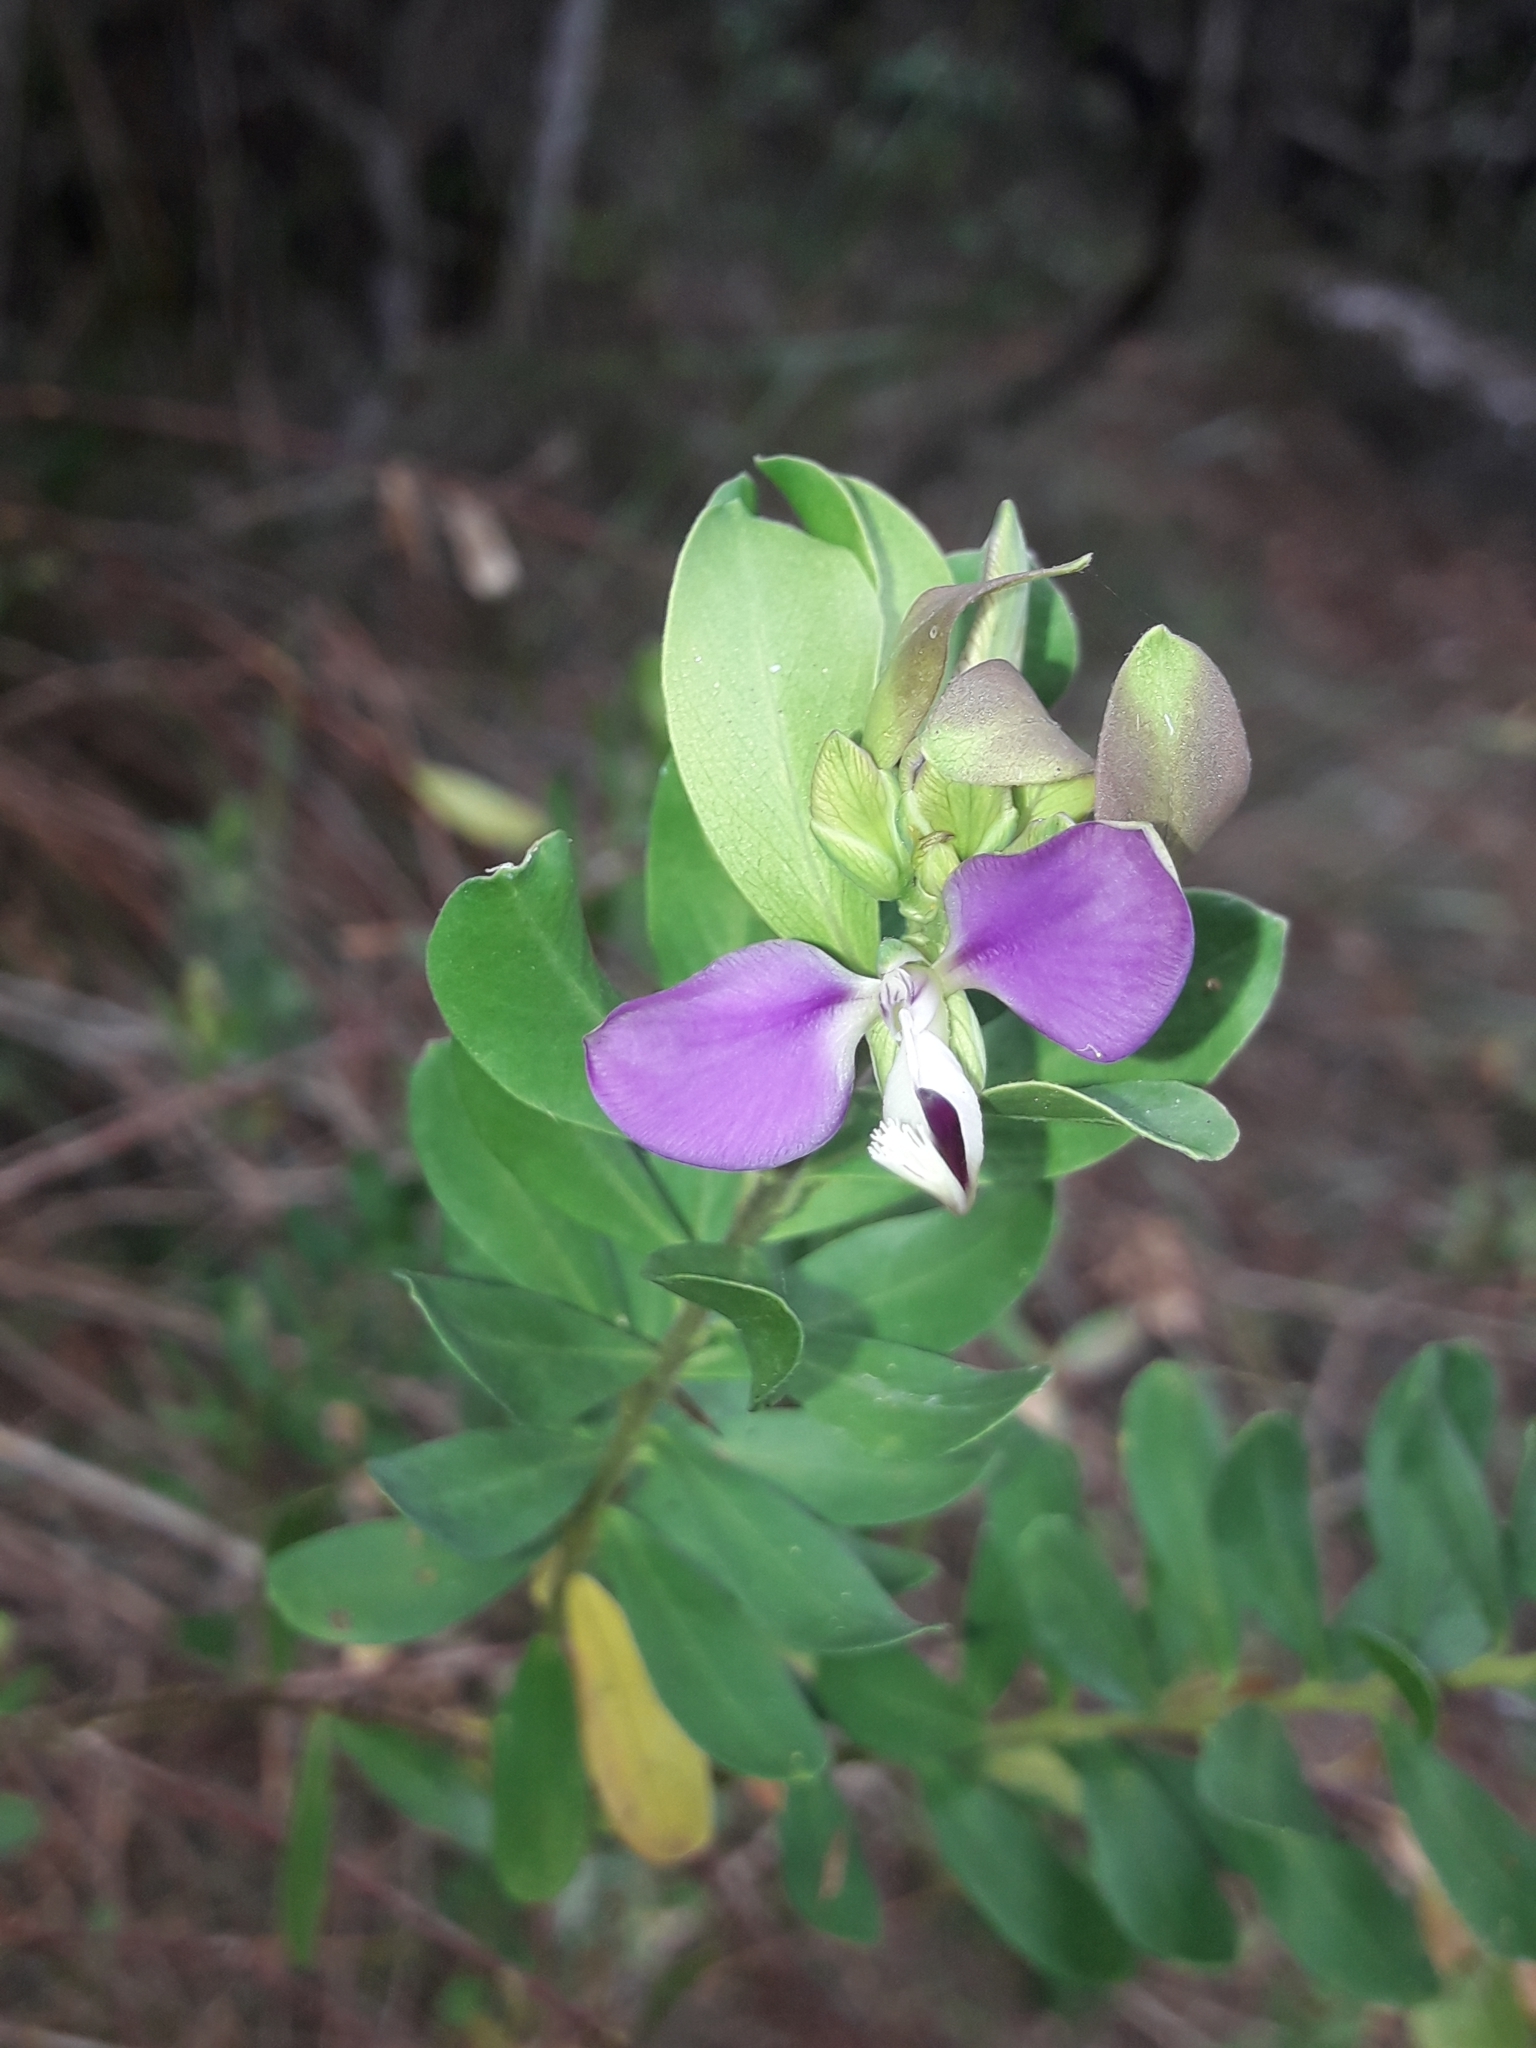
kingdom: Plantae
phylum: Tracheophyta
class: Magnoliopsida
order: Fabales
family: Polygalaceae
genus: Polygala
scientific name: Polygala myrtifolia
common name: Myrtle-leaf milkwort
